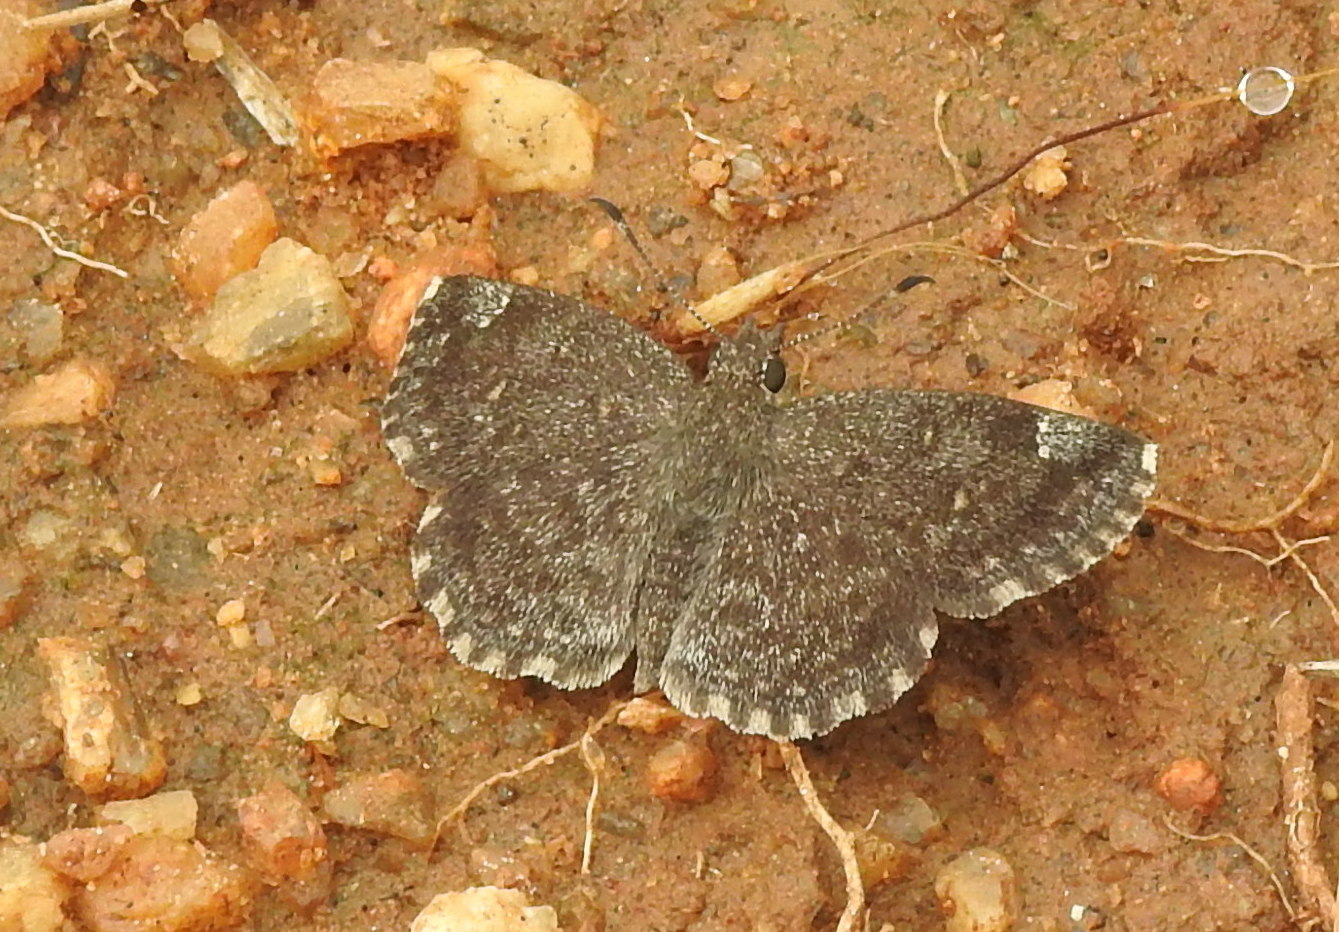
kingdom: Animalia
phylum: Arthropoda
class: Insecta
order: Lepidoptera
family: Hesperiidae
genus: Sarangesa
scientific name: Sarangesa purendra
